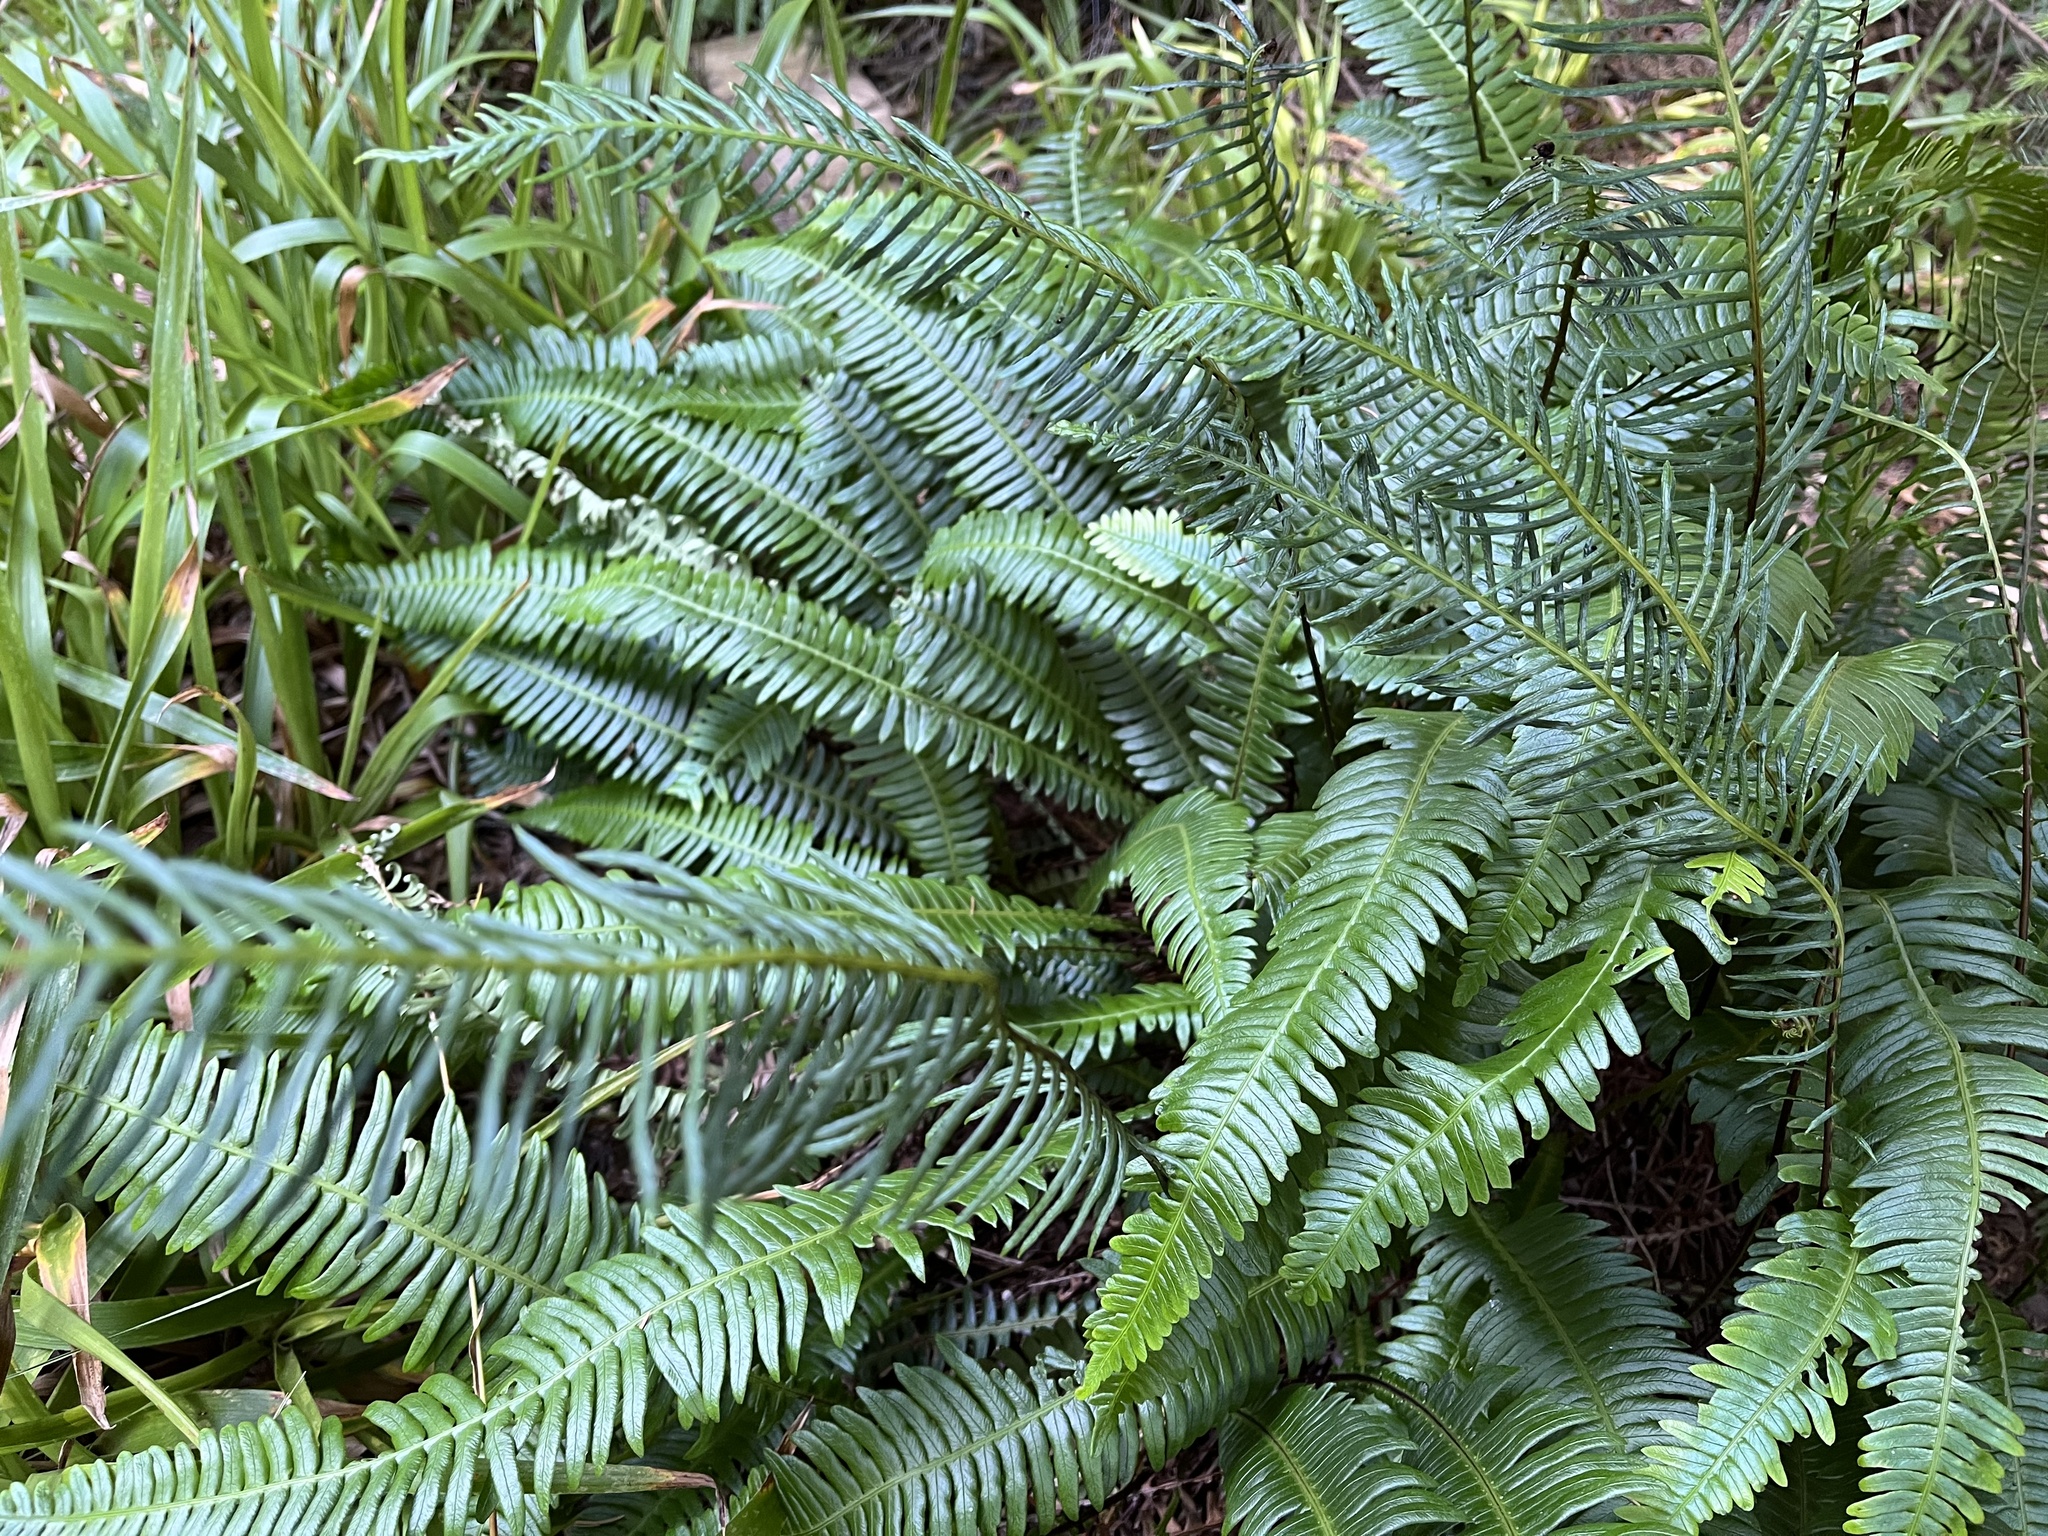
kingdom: Plantae
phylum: Tracheophyta
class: Polypodiopsida
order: Polypodiales
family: Blechnaceae
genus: Struthiopteris
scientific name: Struthiopteris spicant
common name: Deer fern
